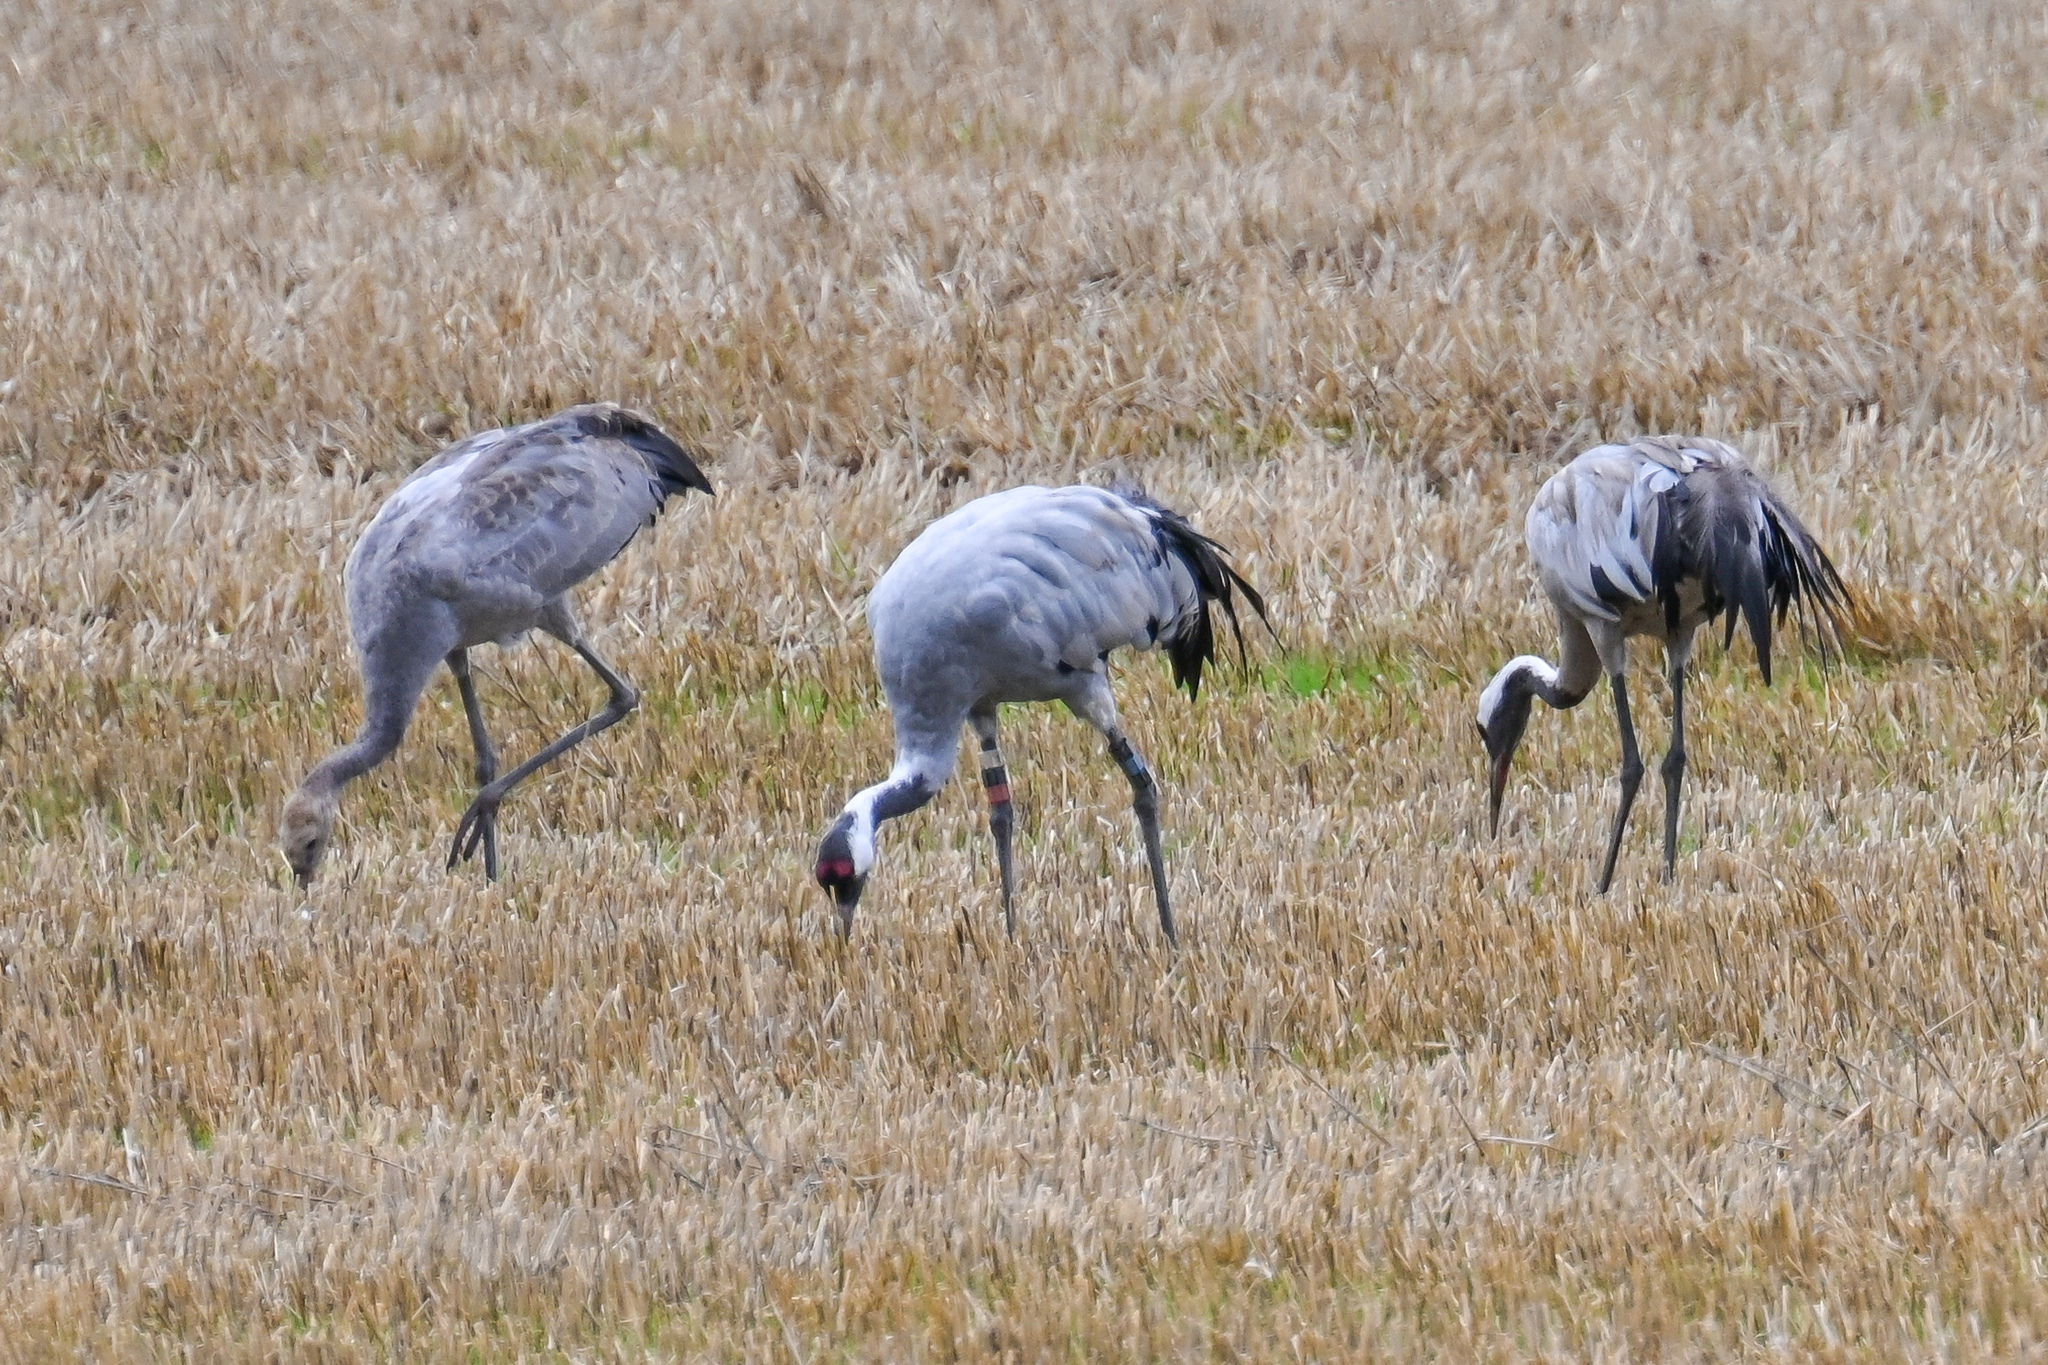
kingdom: Animalia
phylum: Chordata
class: Aves
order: Gruiformes
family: Gruidae
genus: Grus
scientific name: Grus grus
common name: Common crane
